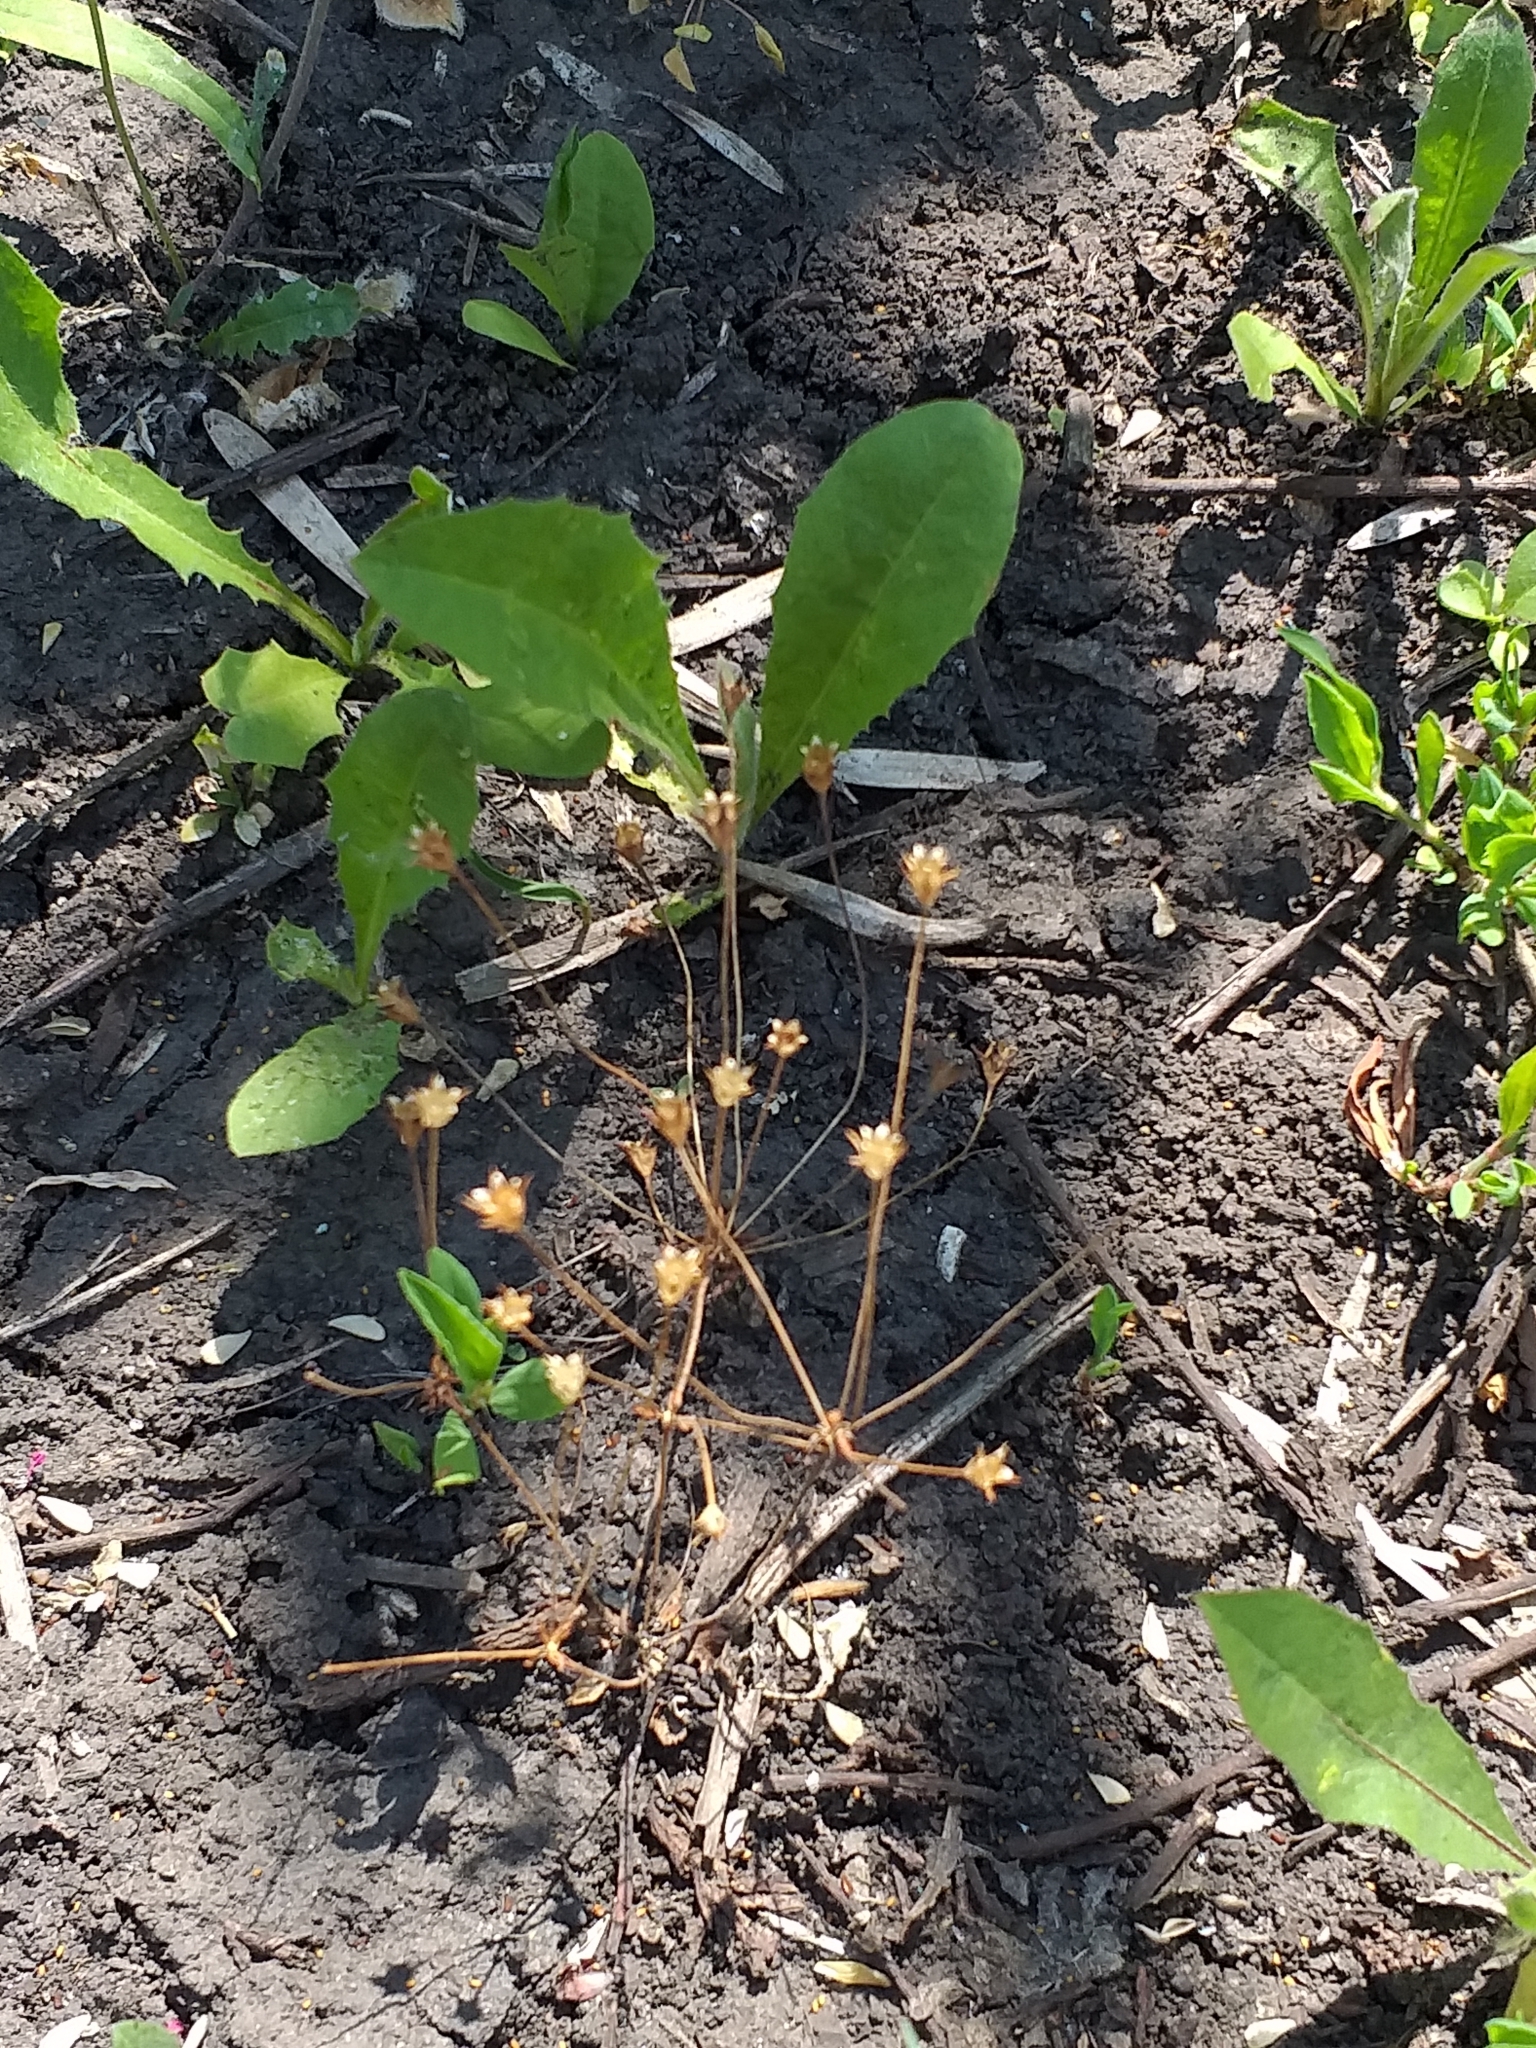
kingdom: Plantae
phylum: Tracheophyta
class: Magnoliopsida
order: Ericales
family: Primulaceae
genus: Androsace
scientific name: Androsace elongata
